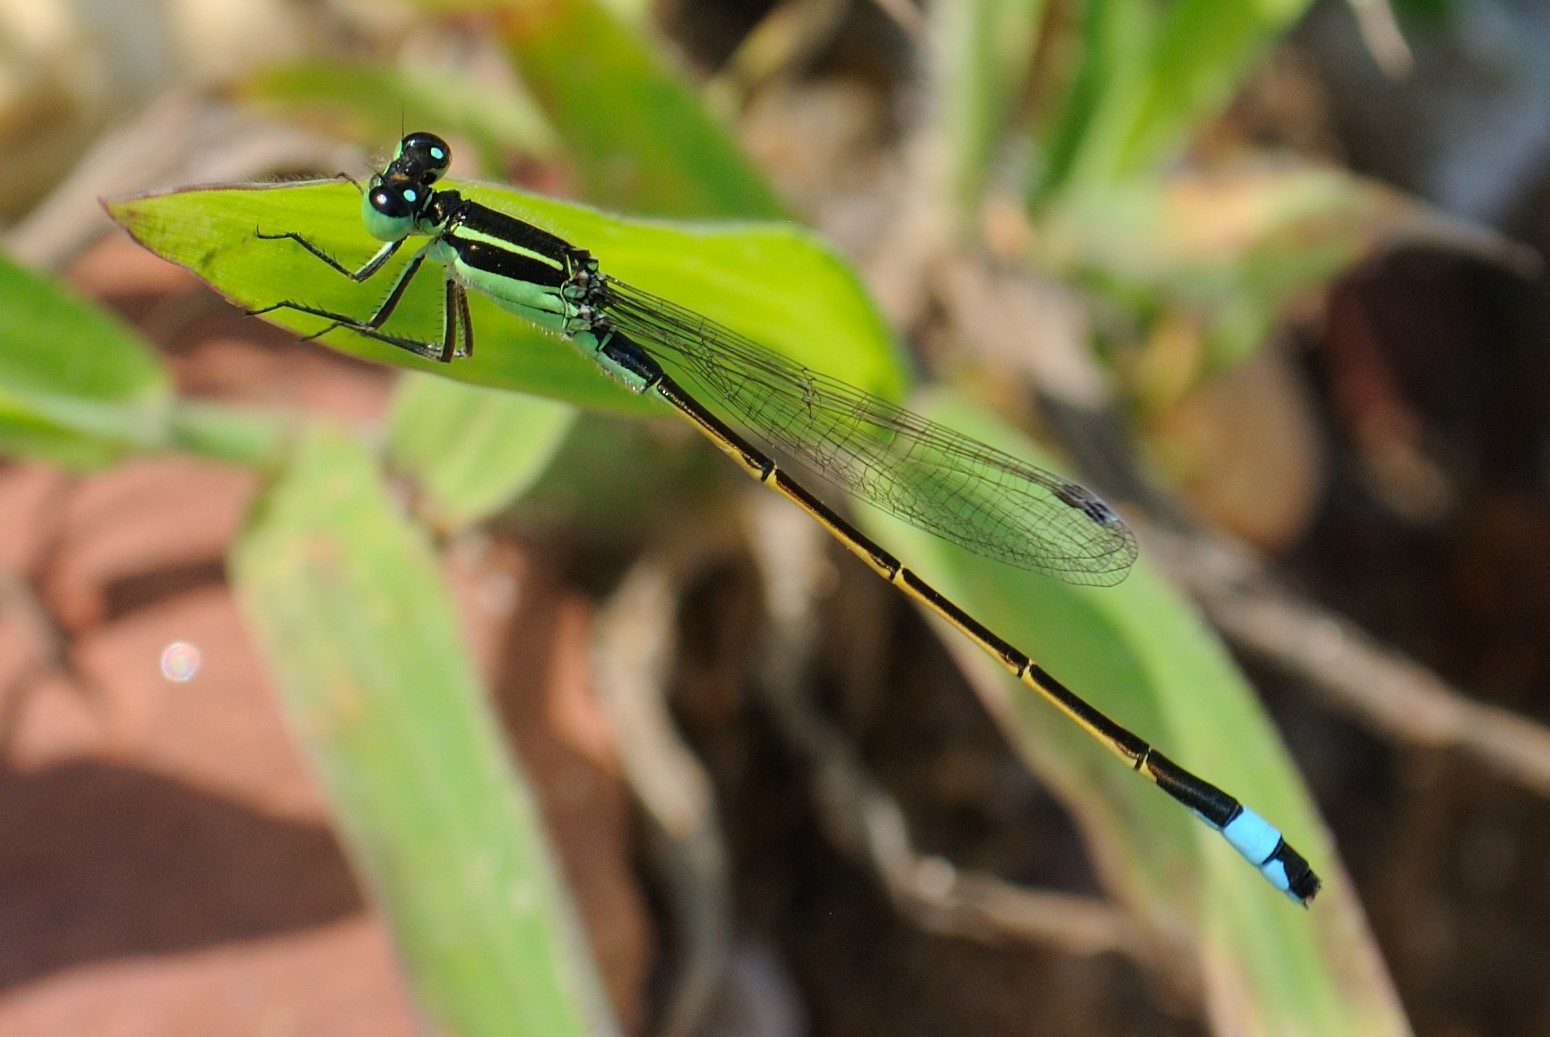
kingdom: Animalia
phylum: Arthropoda
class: Insecta
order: Odonata
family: Coenagrionidae
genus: Ischnura
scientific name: Ischnura ramburii
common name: Rambur's forktail
